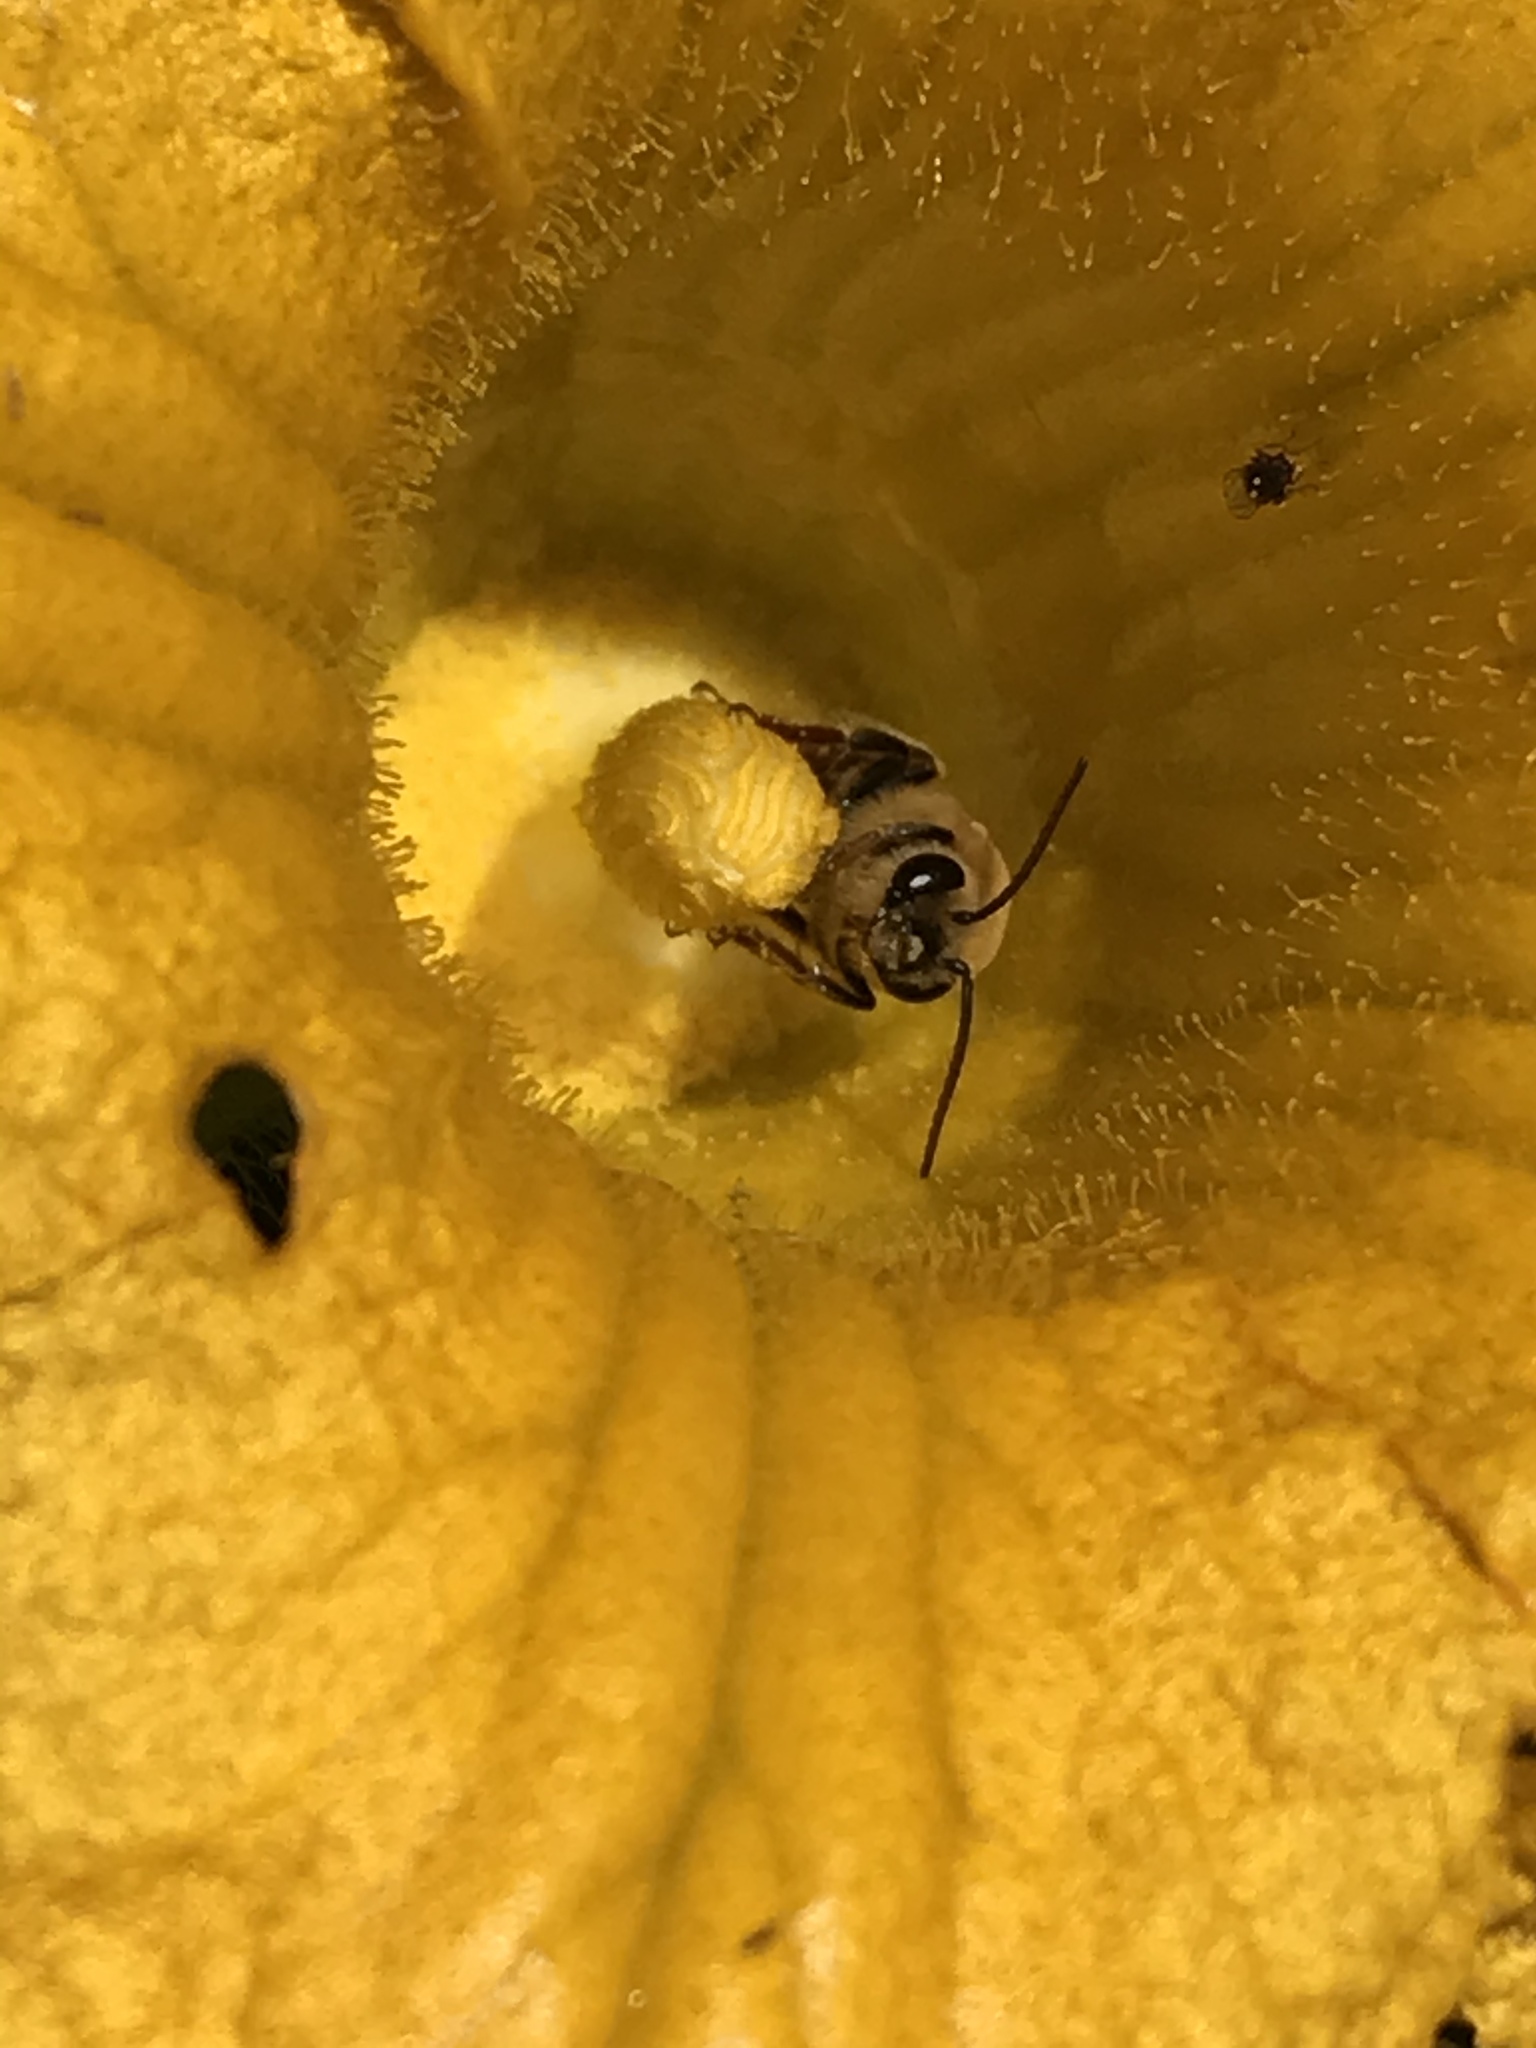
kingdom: Animalia
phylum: Arthropoda
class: Insecta
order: Hymenoptera
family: Apidae
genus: Peponapis
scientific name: Peponapis pruinosa
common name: Pruinose squash bee
